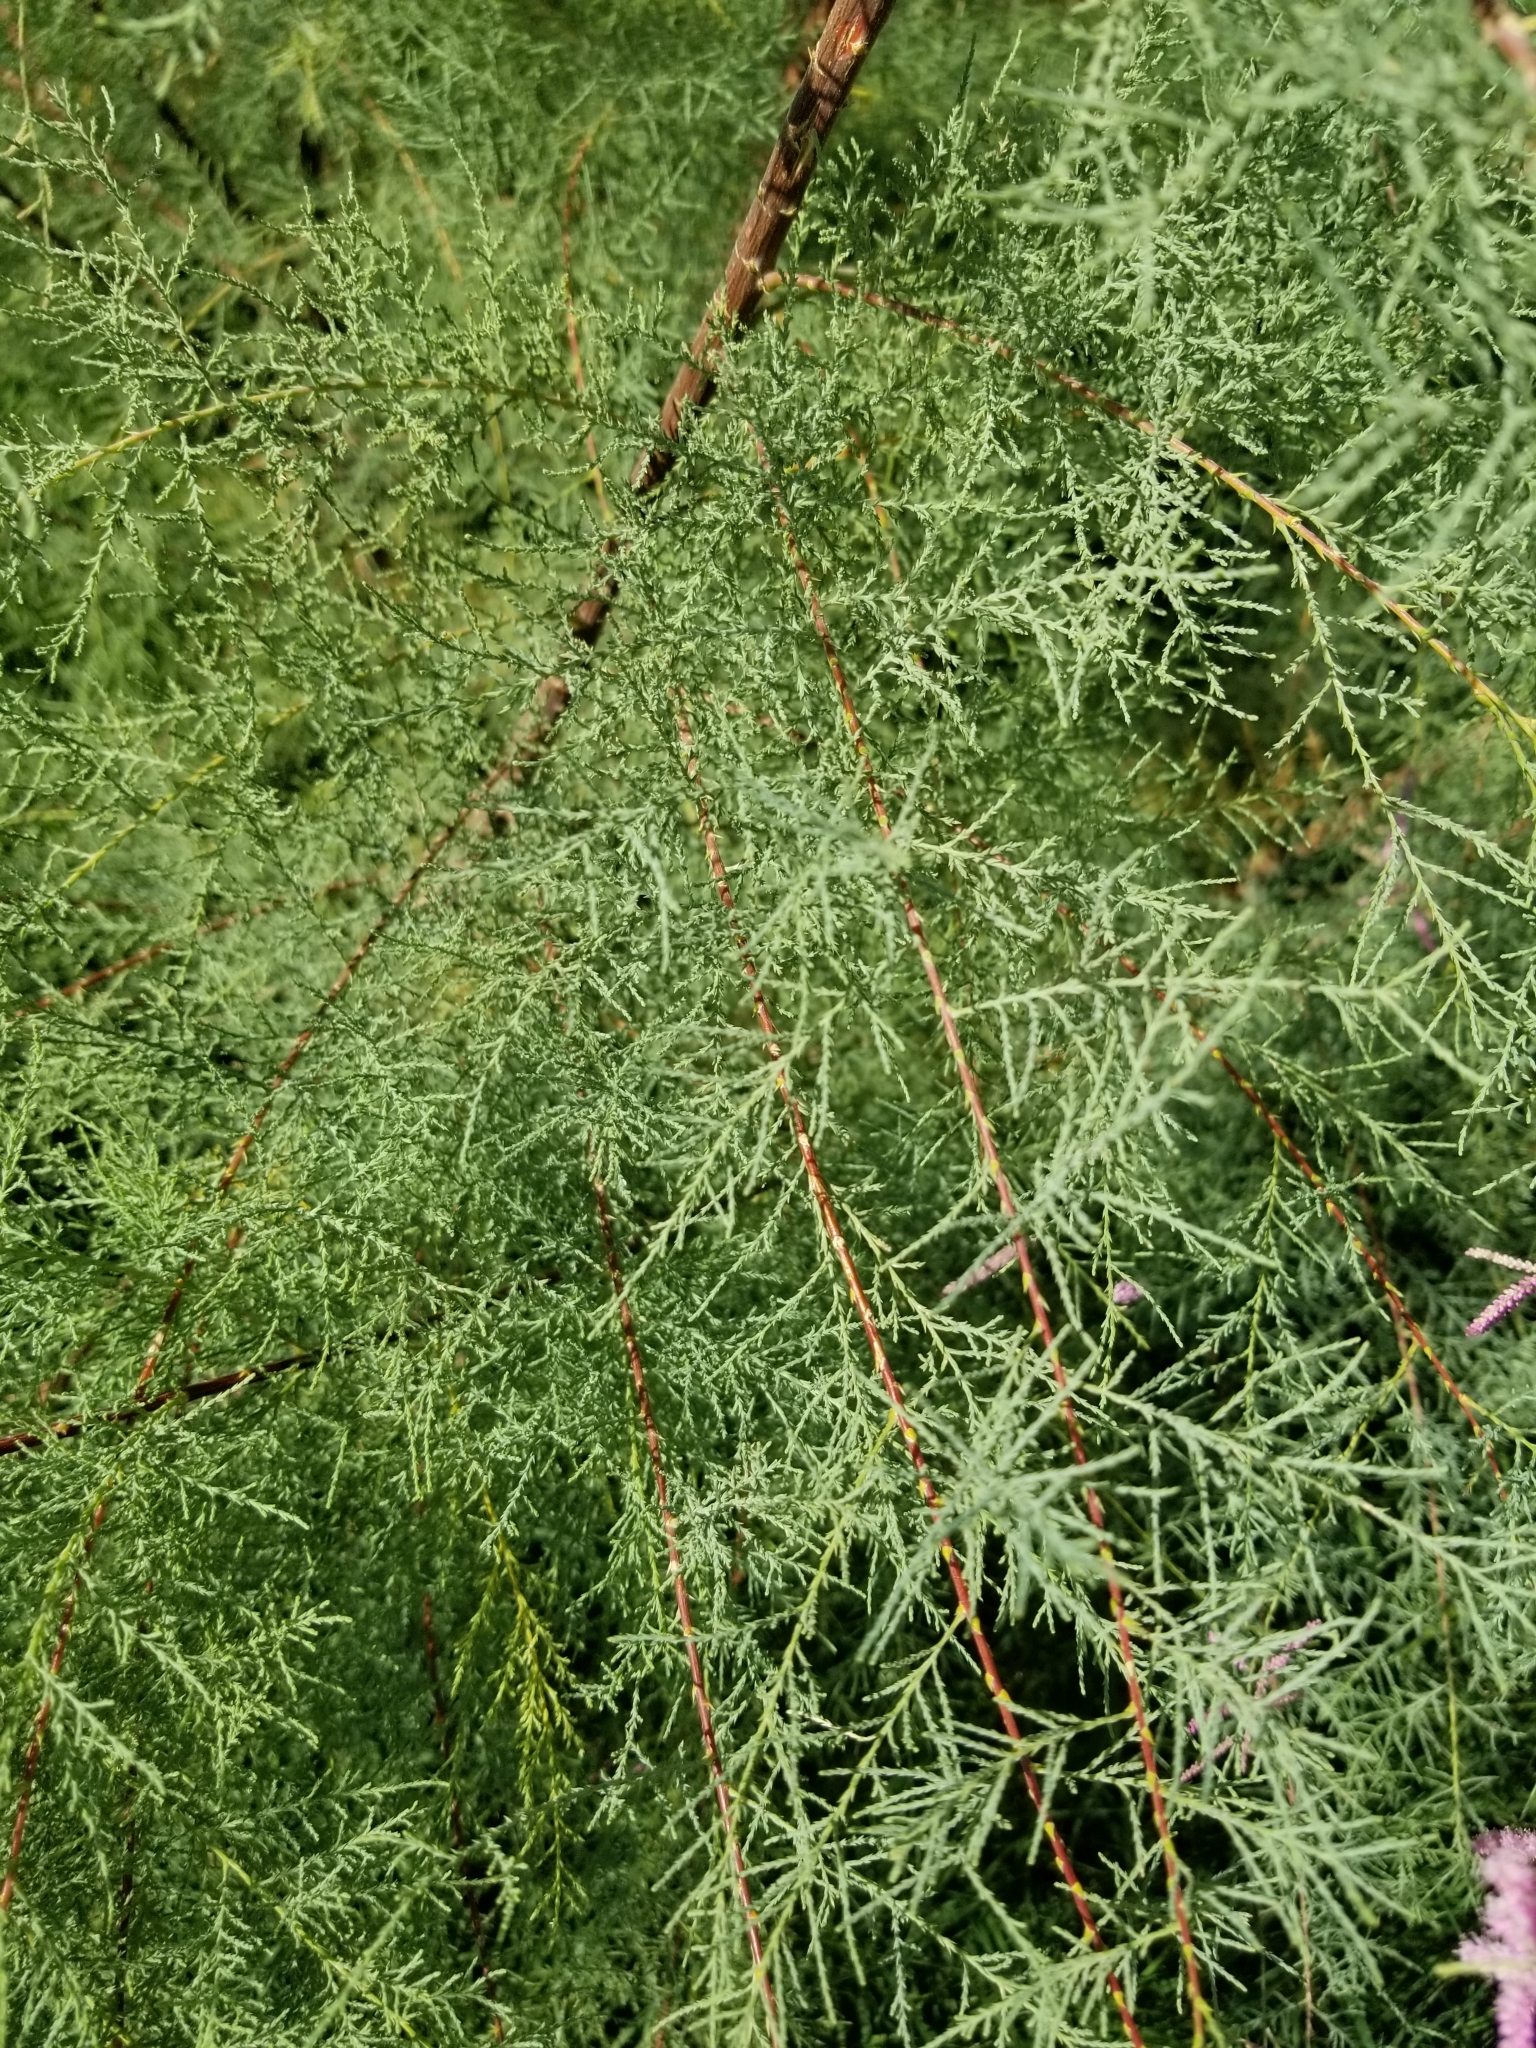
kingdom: Plantae
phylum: Tracheophyta
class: Magnoliopsida
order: Caryophyllales
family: Tamaricaceae
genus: Tamarix
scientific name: Tamarix ramosissima
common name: Pink tamarisk
